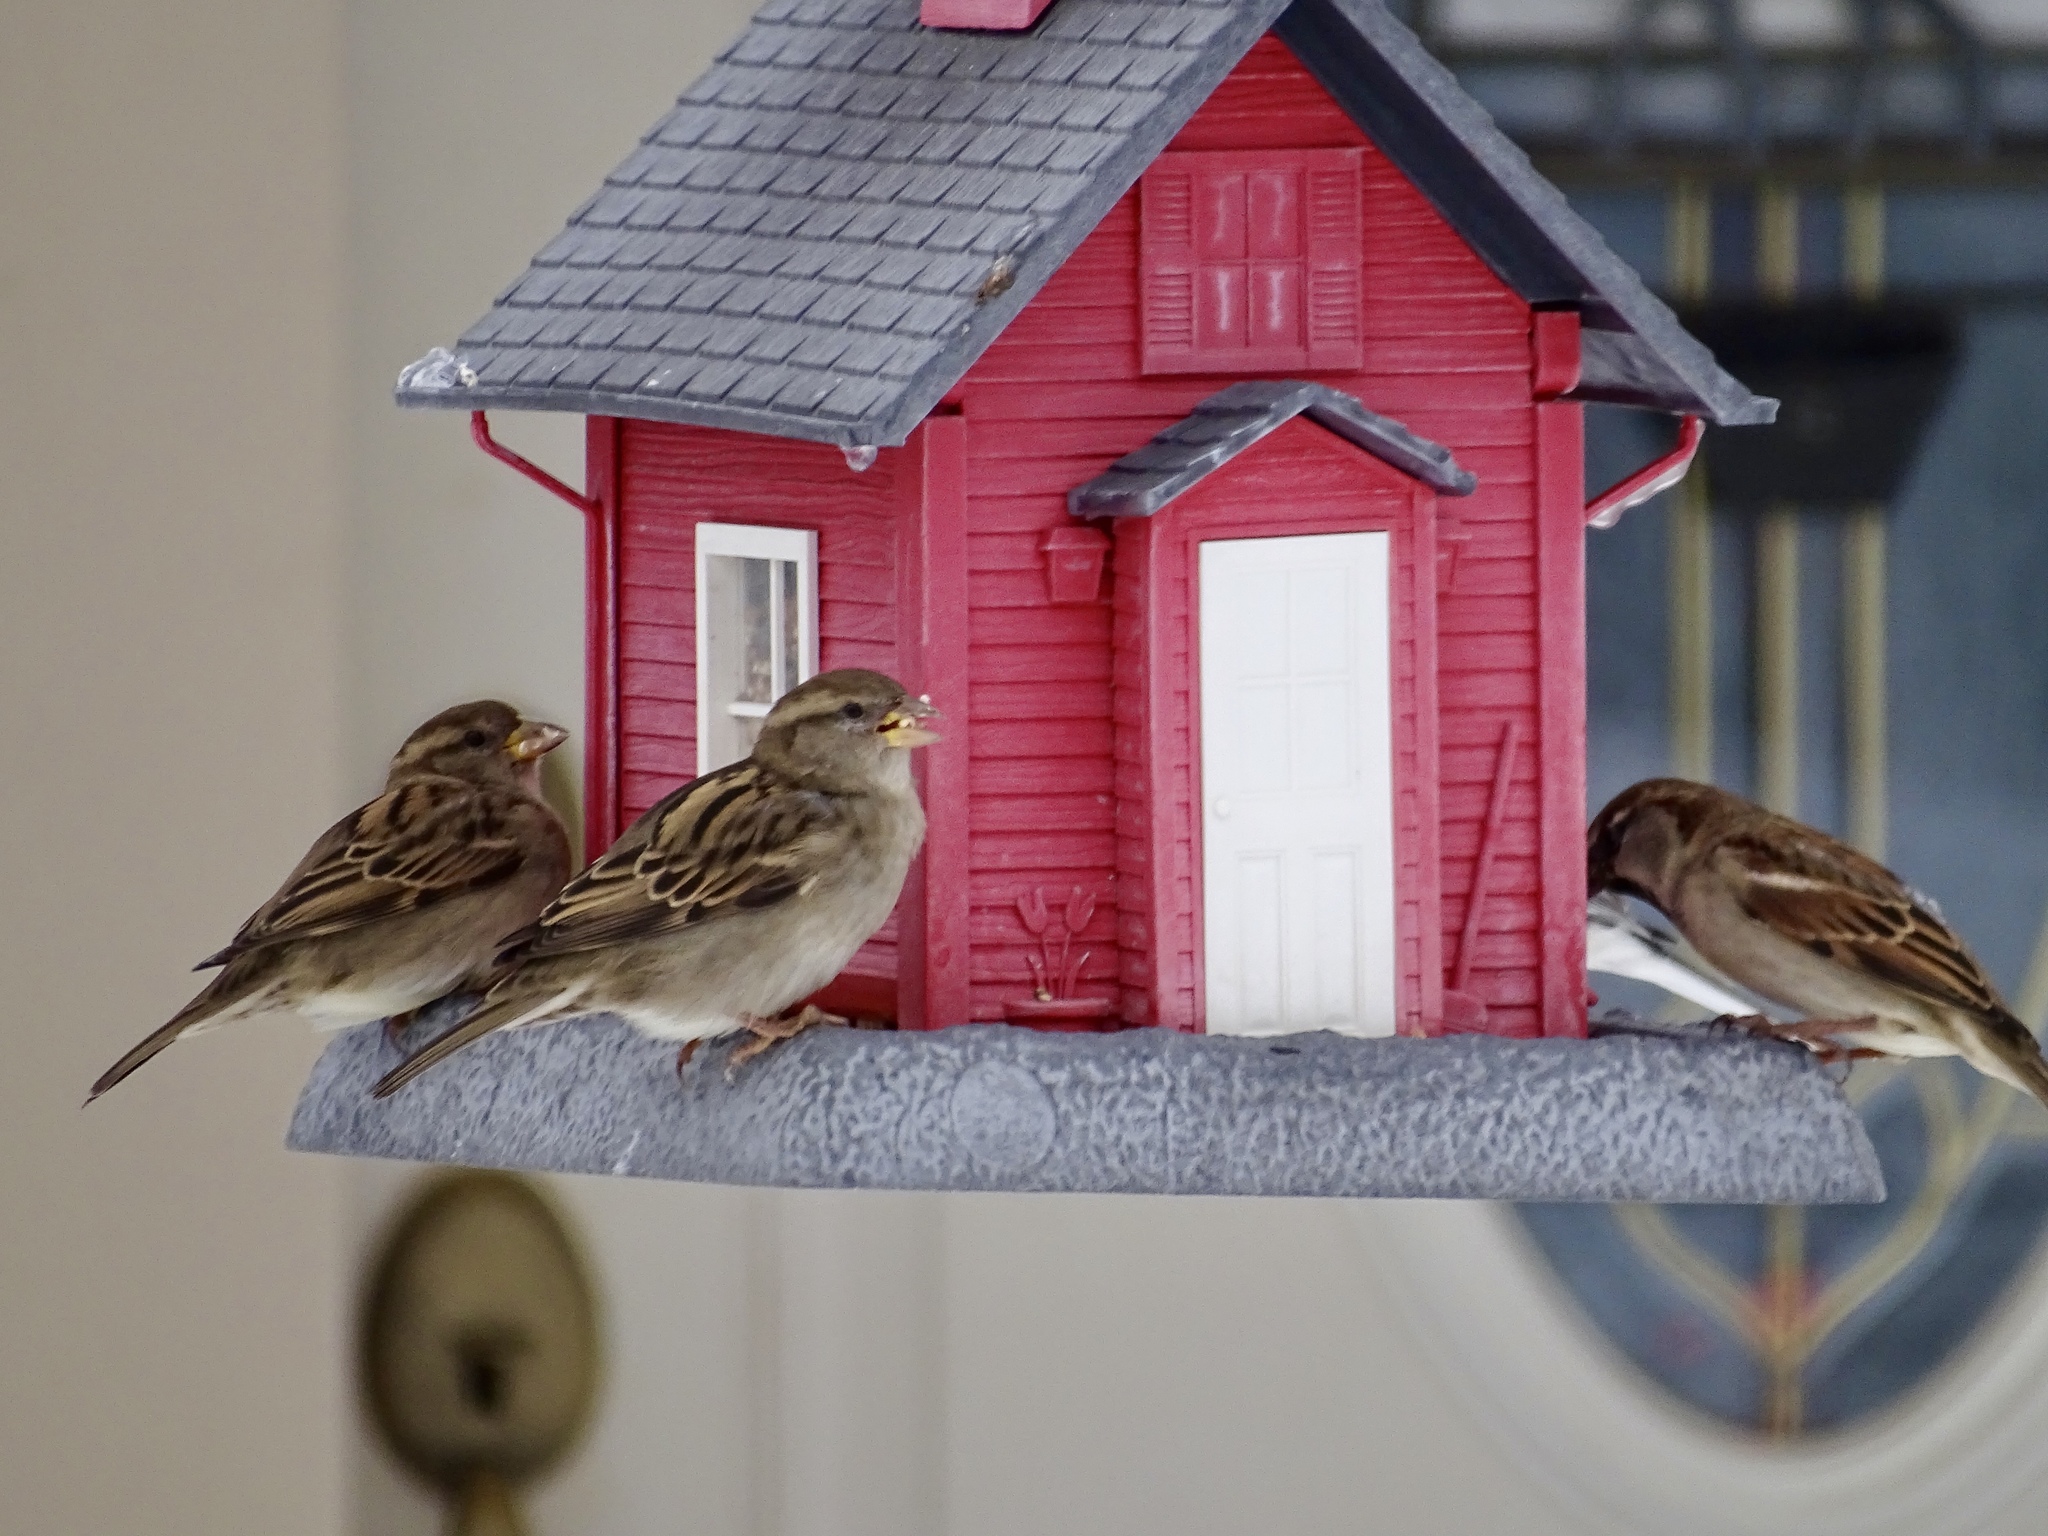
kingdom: Animalia
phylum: Chordata
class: Aves
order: Passeriformes
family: Passeridae
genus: Passer
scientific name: Passer domesticus
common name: House sparrow
